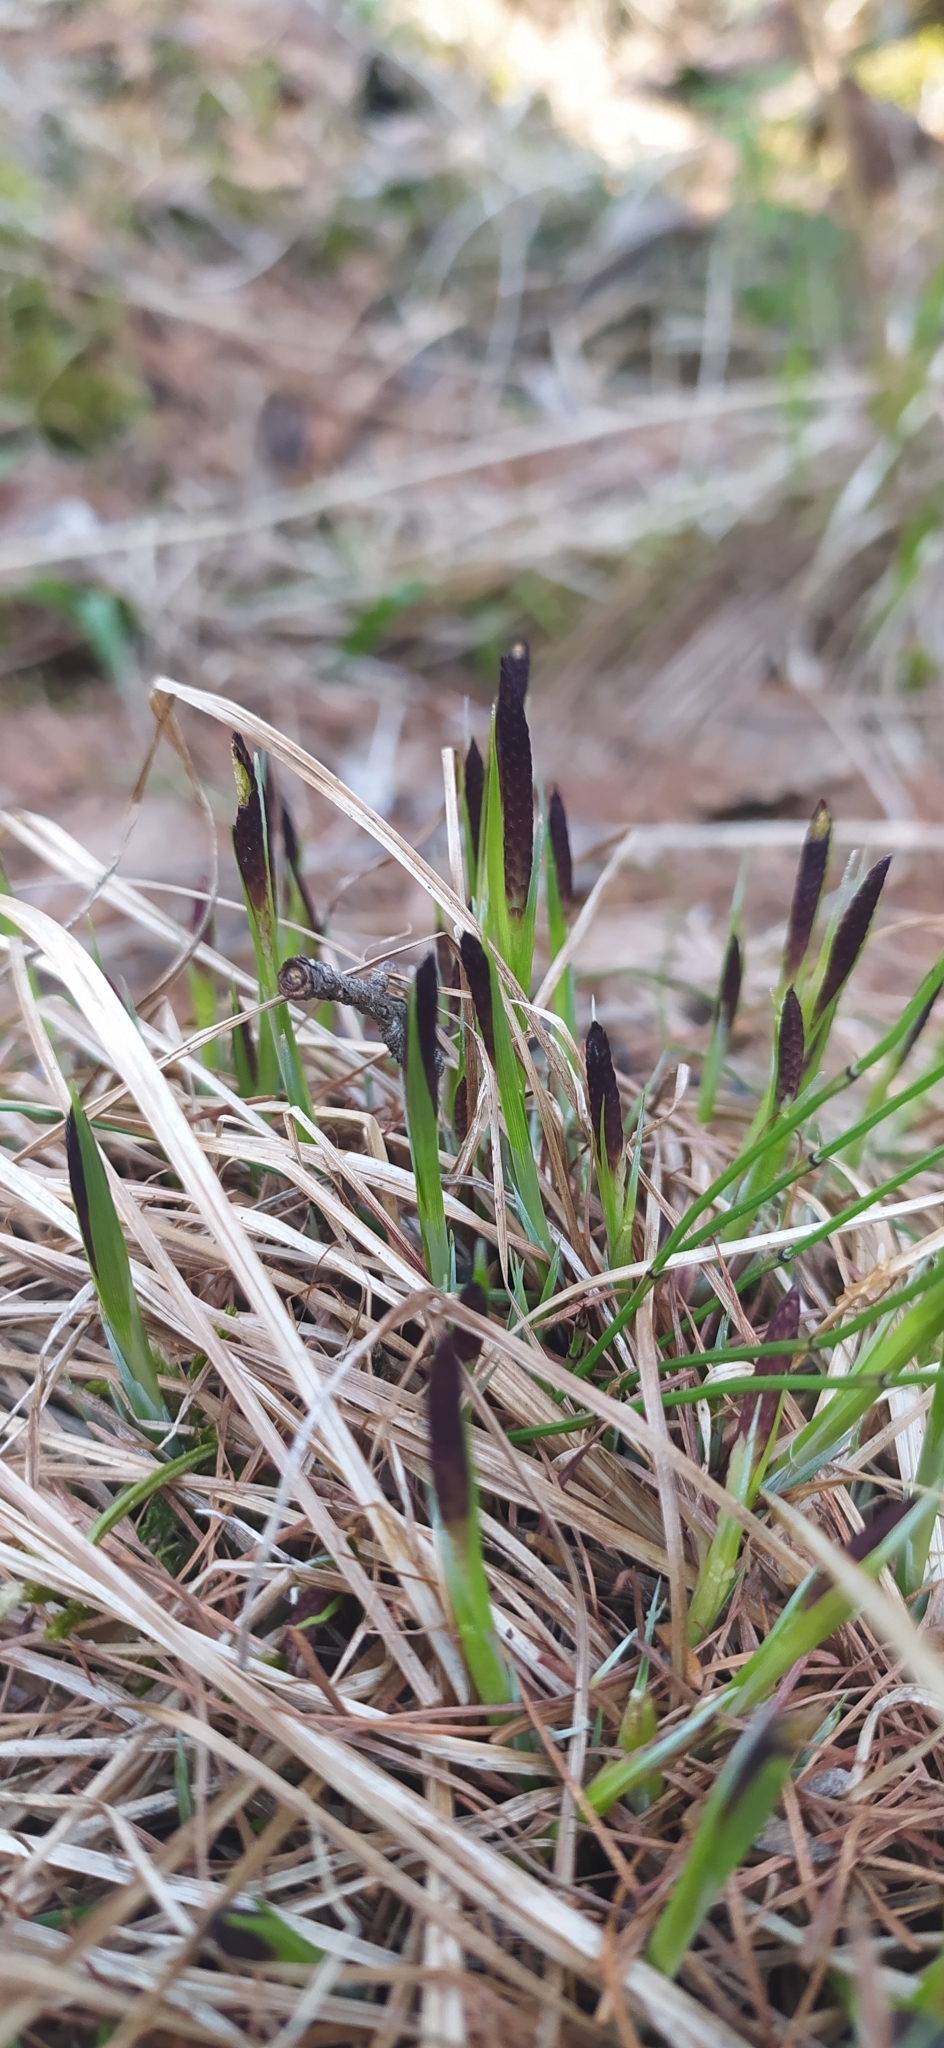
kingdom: Plantae
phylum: Tracheophyta
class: Liliopsida
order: Poales
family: Cyperaceae
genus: Carex
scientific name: Carex cespitosa
